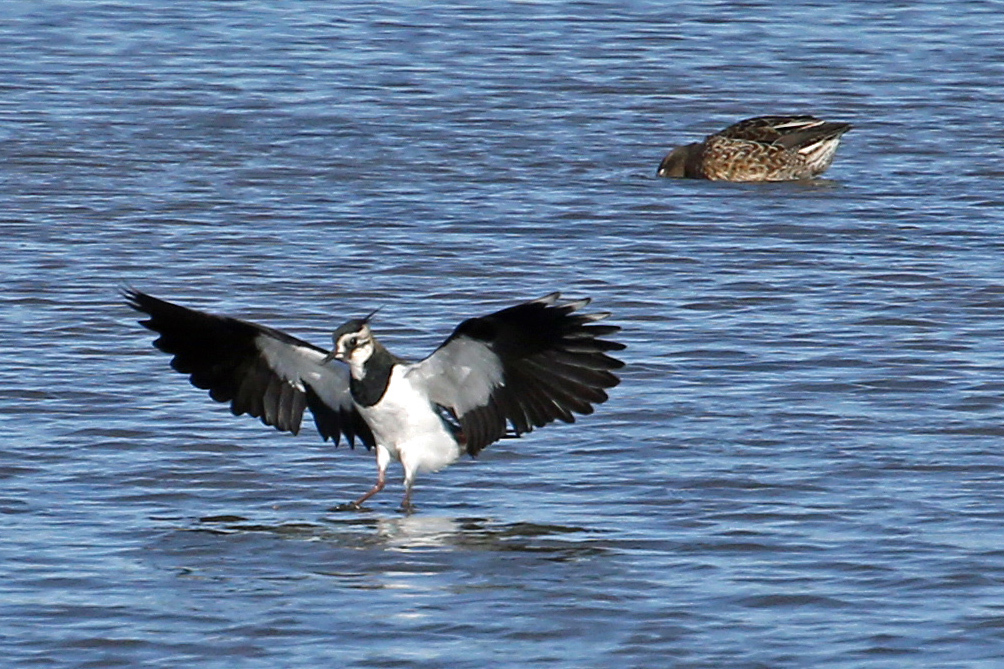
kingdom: Animalia
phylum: Chordata
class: Aves
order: Charadriiformes
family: Charadriidae
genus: Vanellus
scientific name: Vanellus vanellus
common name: Northern lapwing
